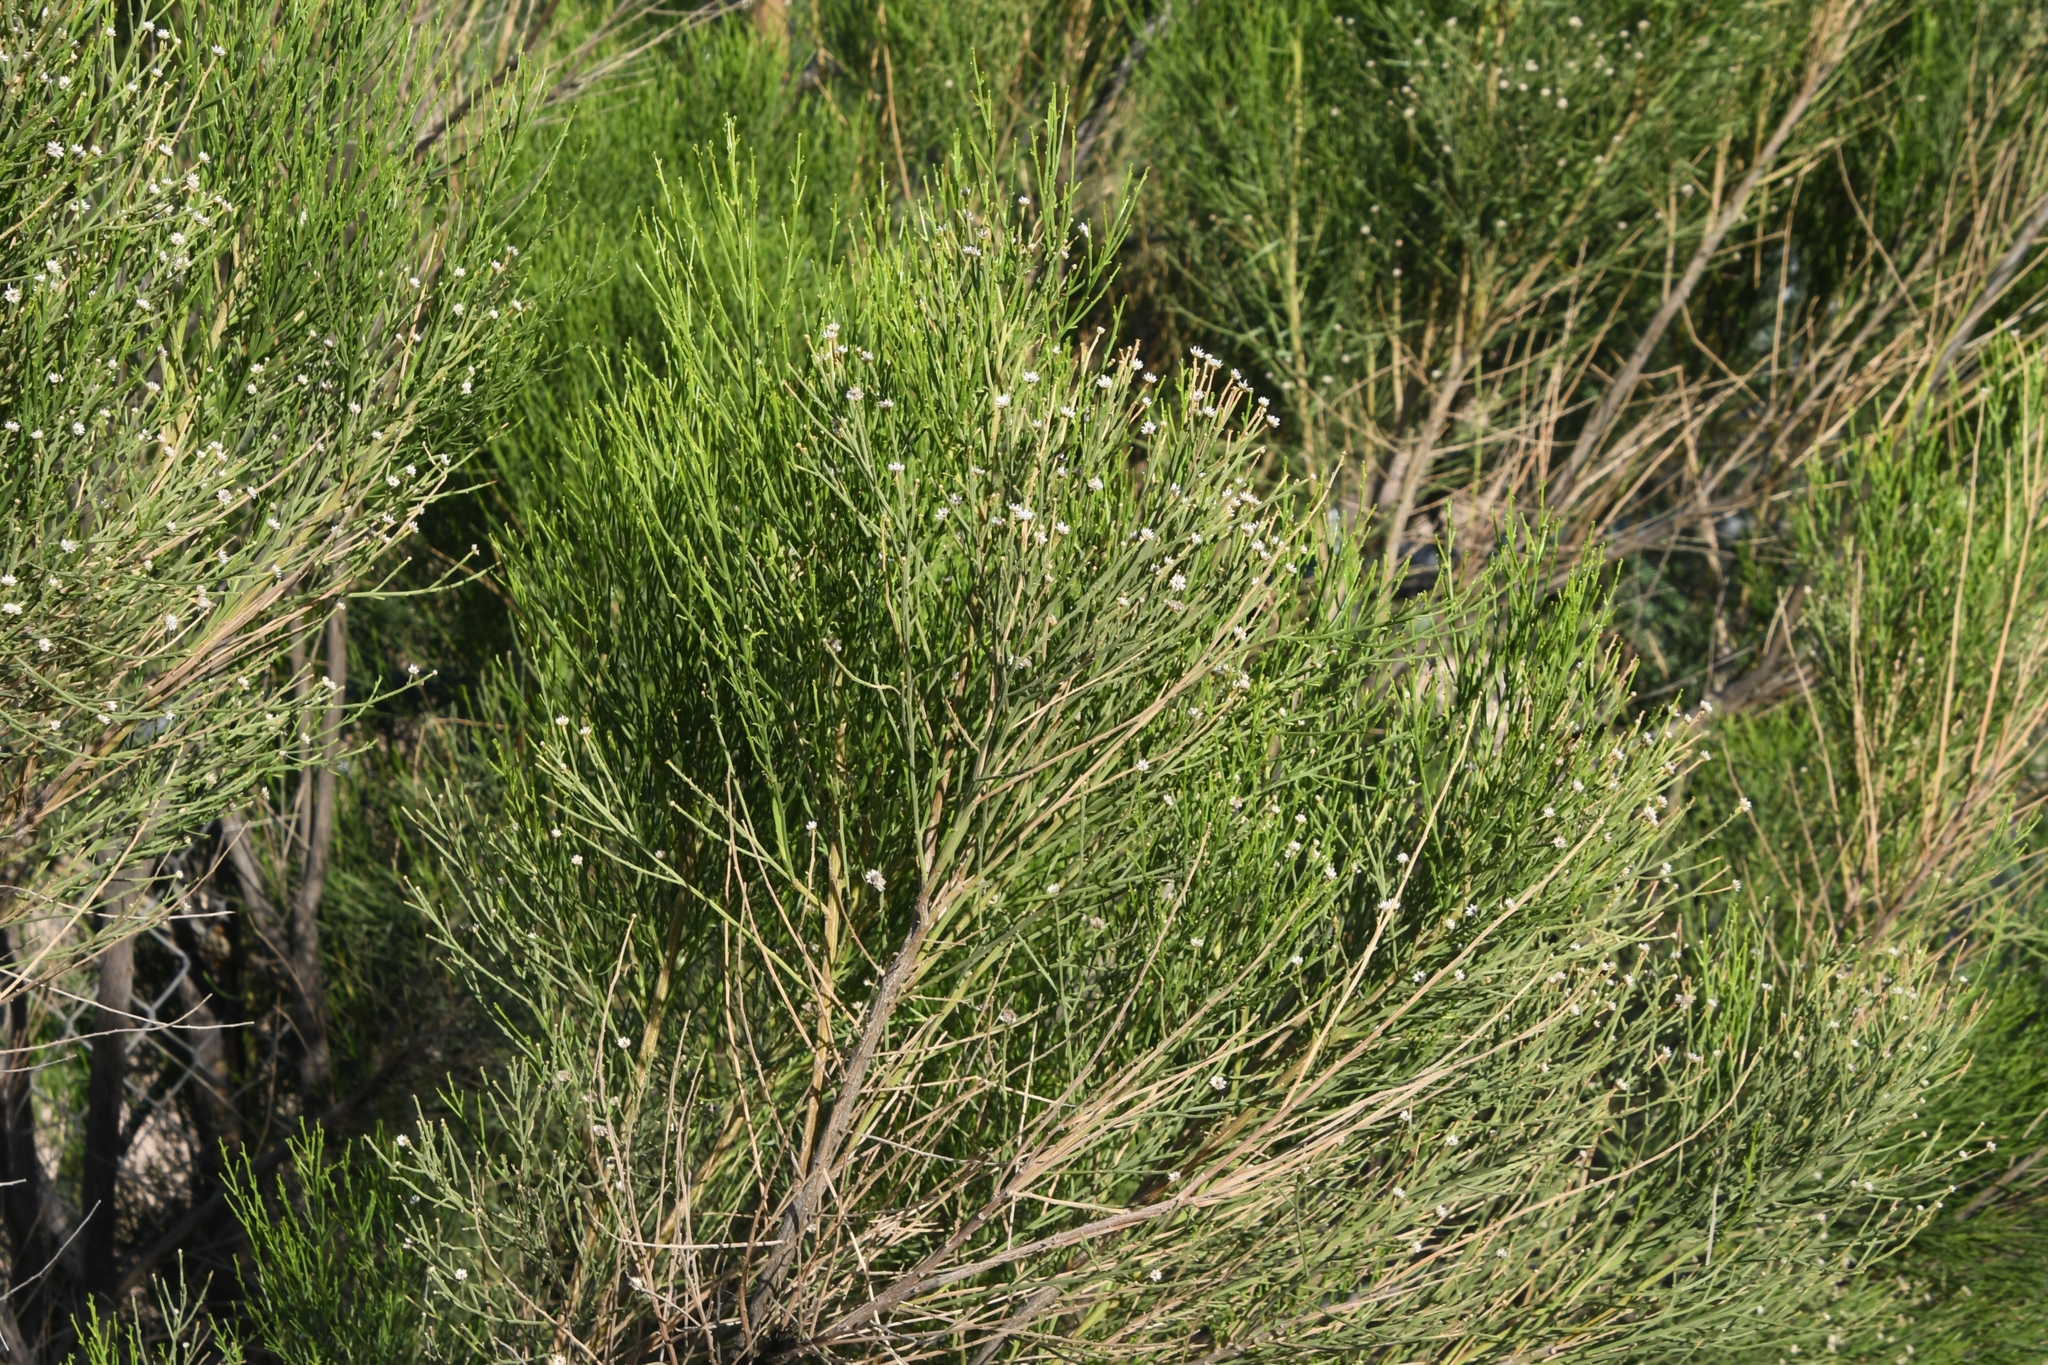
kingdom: Plantae
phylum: Tracheophyta
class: Magnoliopsida
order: Asterales
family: Asteraceae
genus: Baccharis
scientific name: Baccharis sarothroides
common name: Desert-broom
